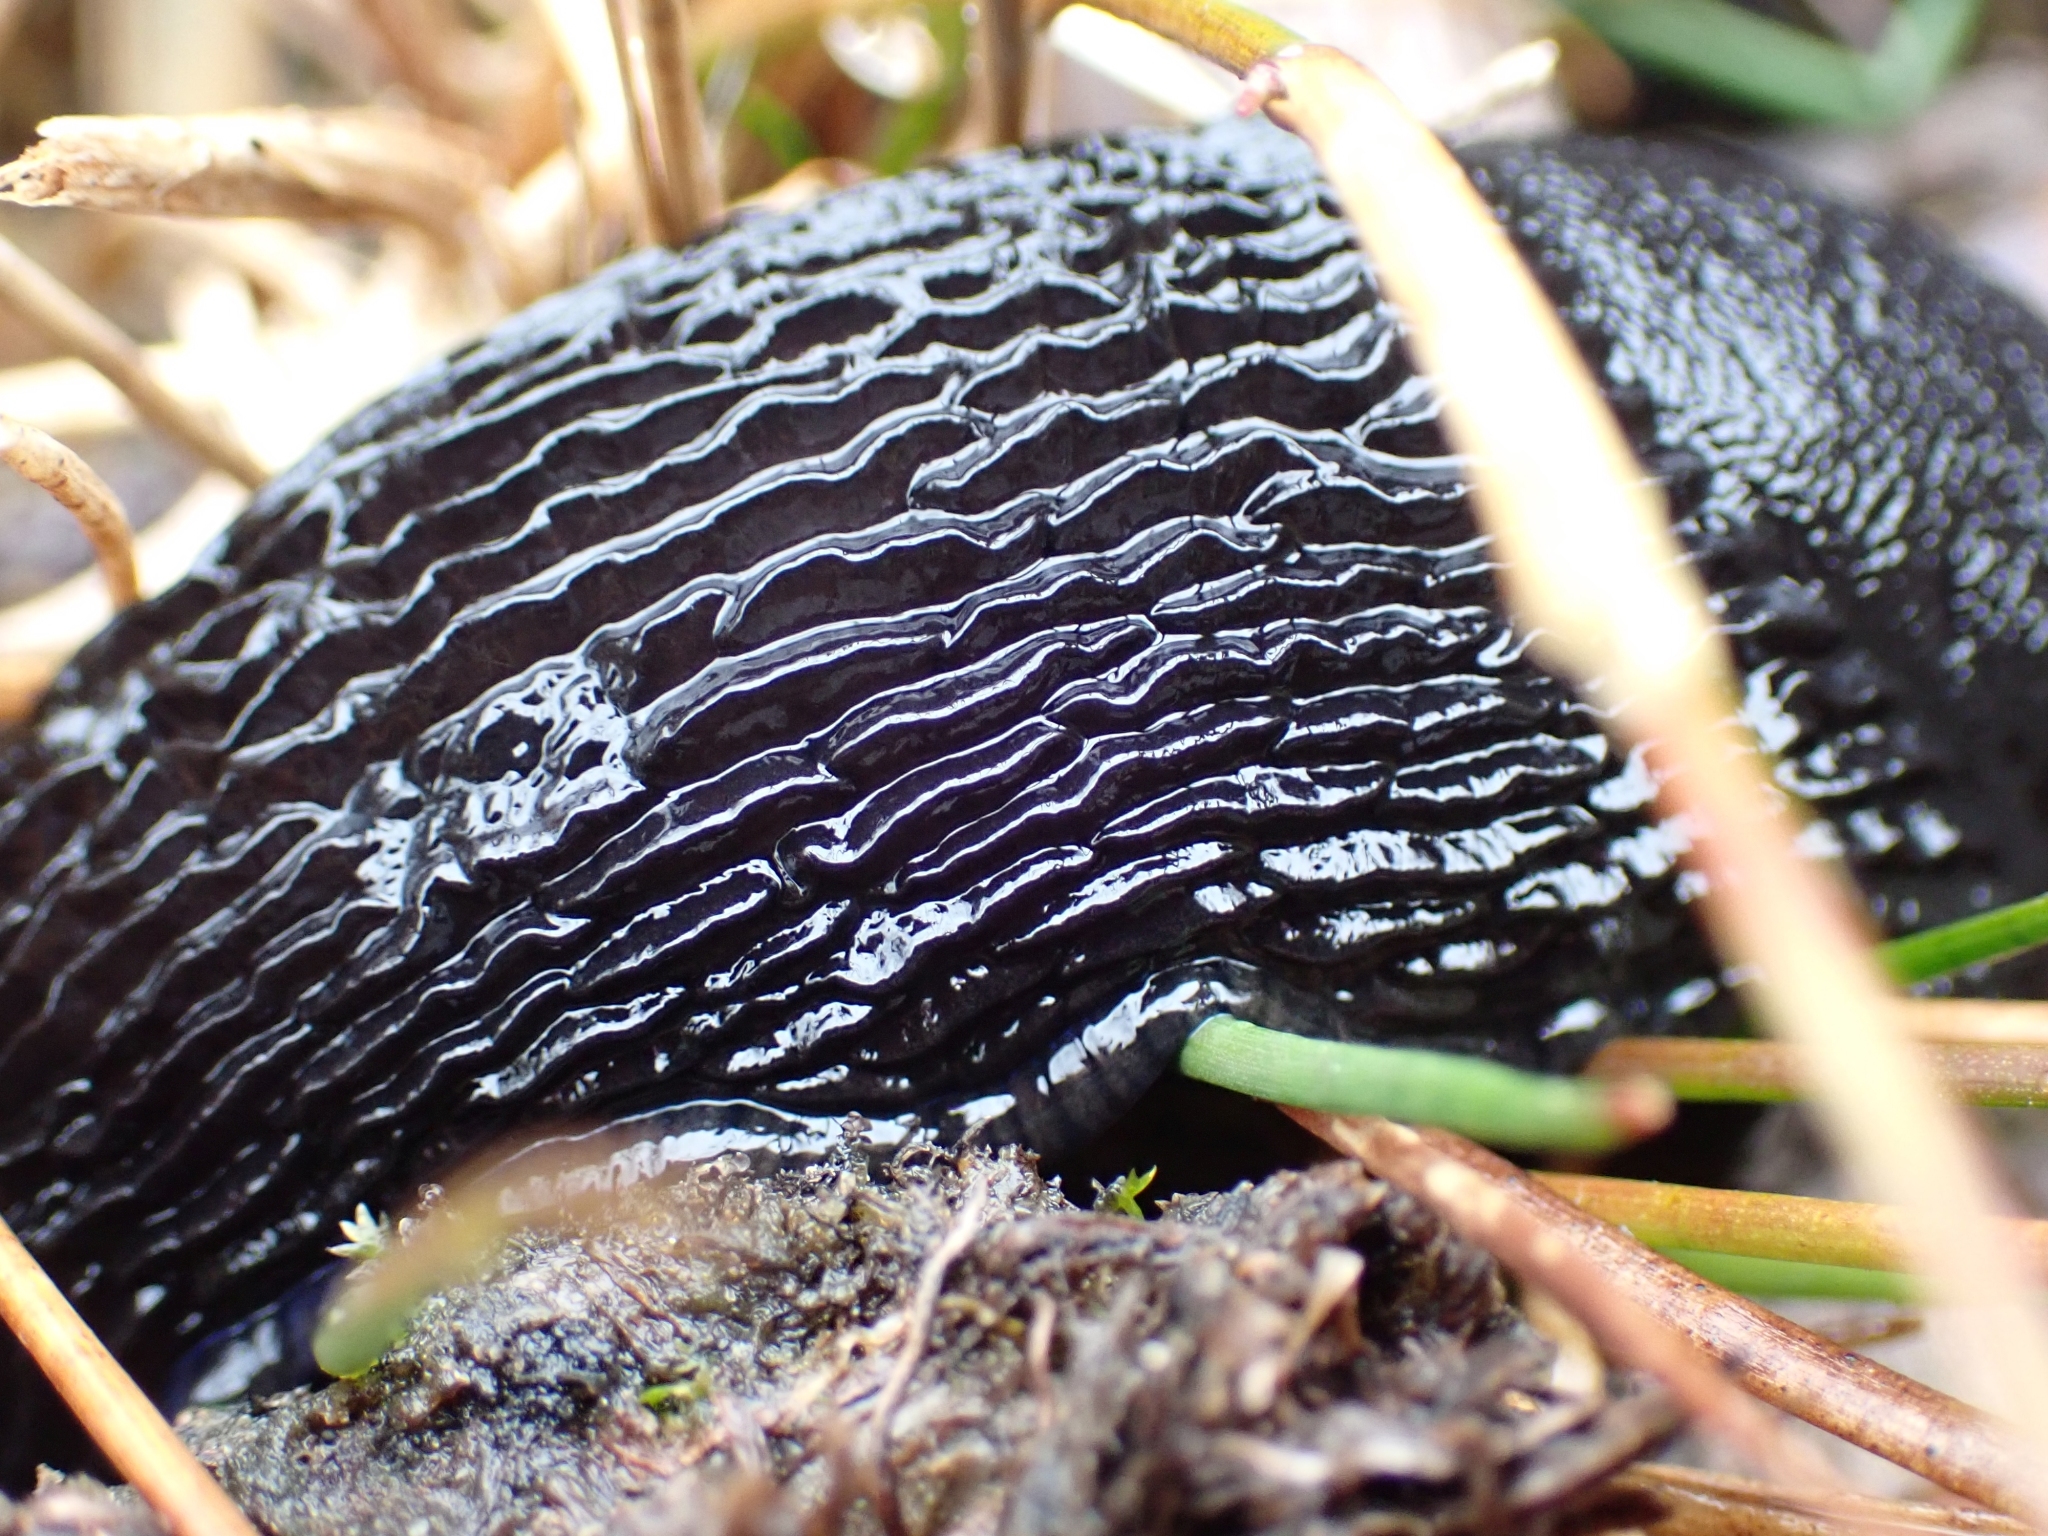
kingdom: Animalia
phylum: Mollusca
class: Gastropoda
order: Stylommatophora
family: Arionidae
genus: Arion
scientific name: Arion
